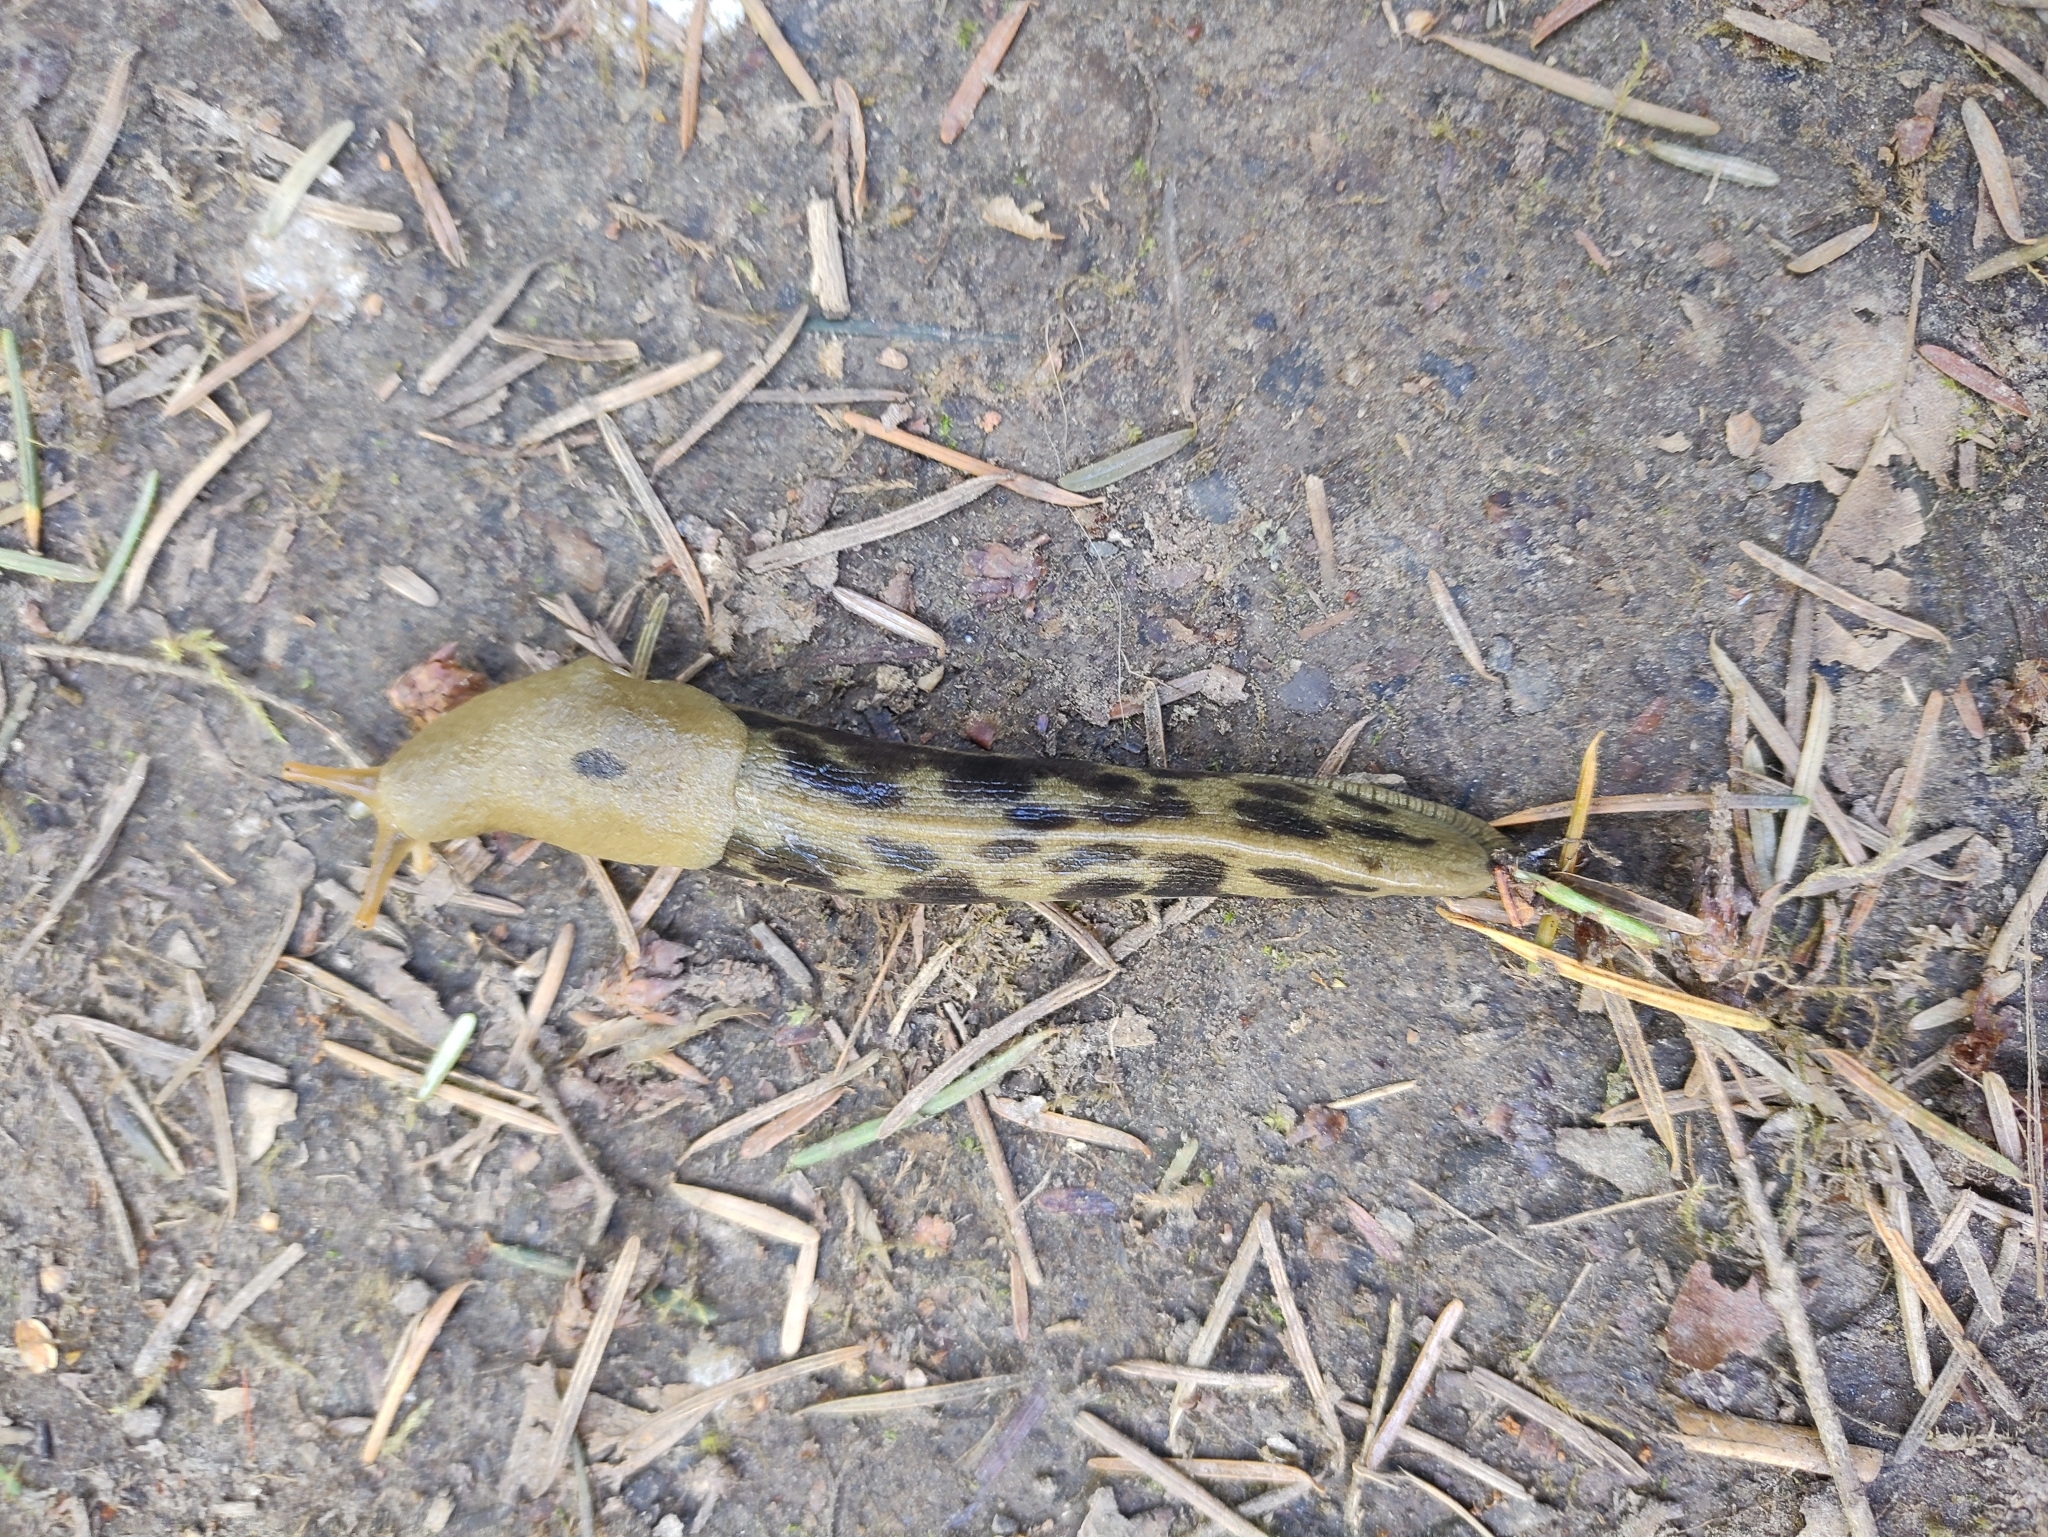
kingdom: Animalia
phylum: Mollusca
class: Gastropoda
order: Stylommatophora
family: Ariolimacidae
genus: Ariolimax
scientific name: Ariolimax columbianus
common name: Pacific banana slug
